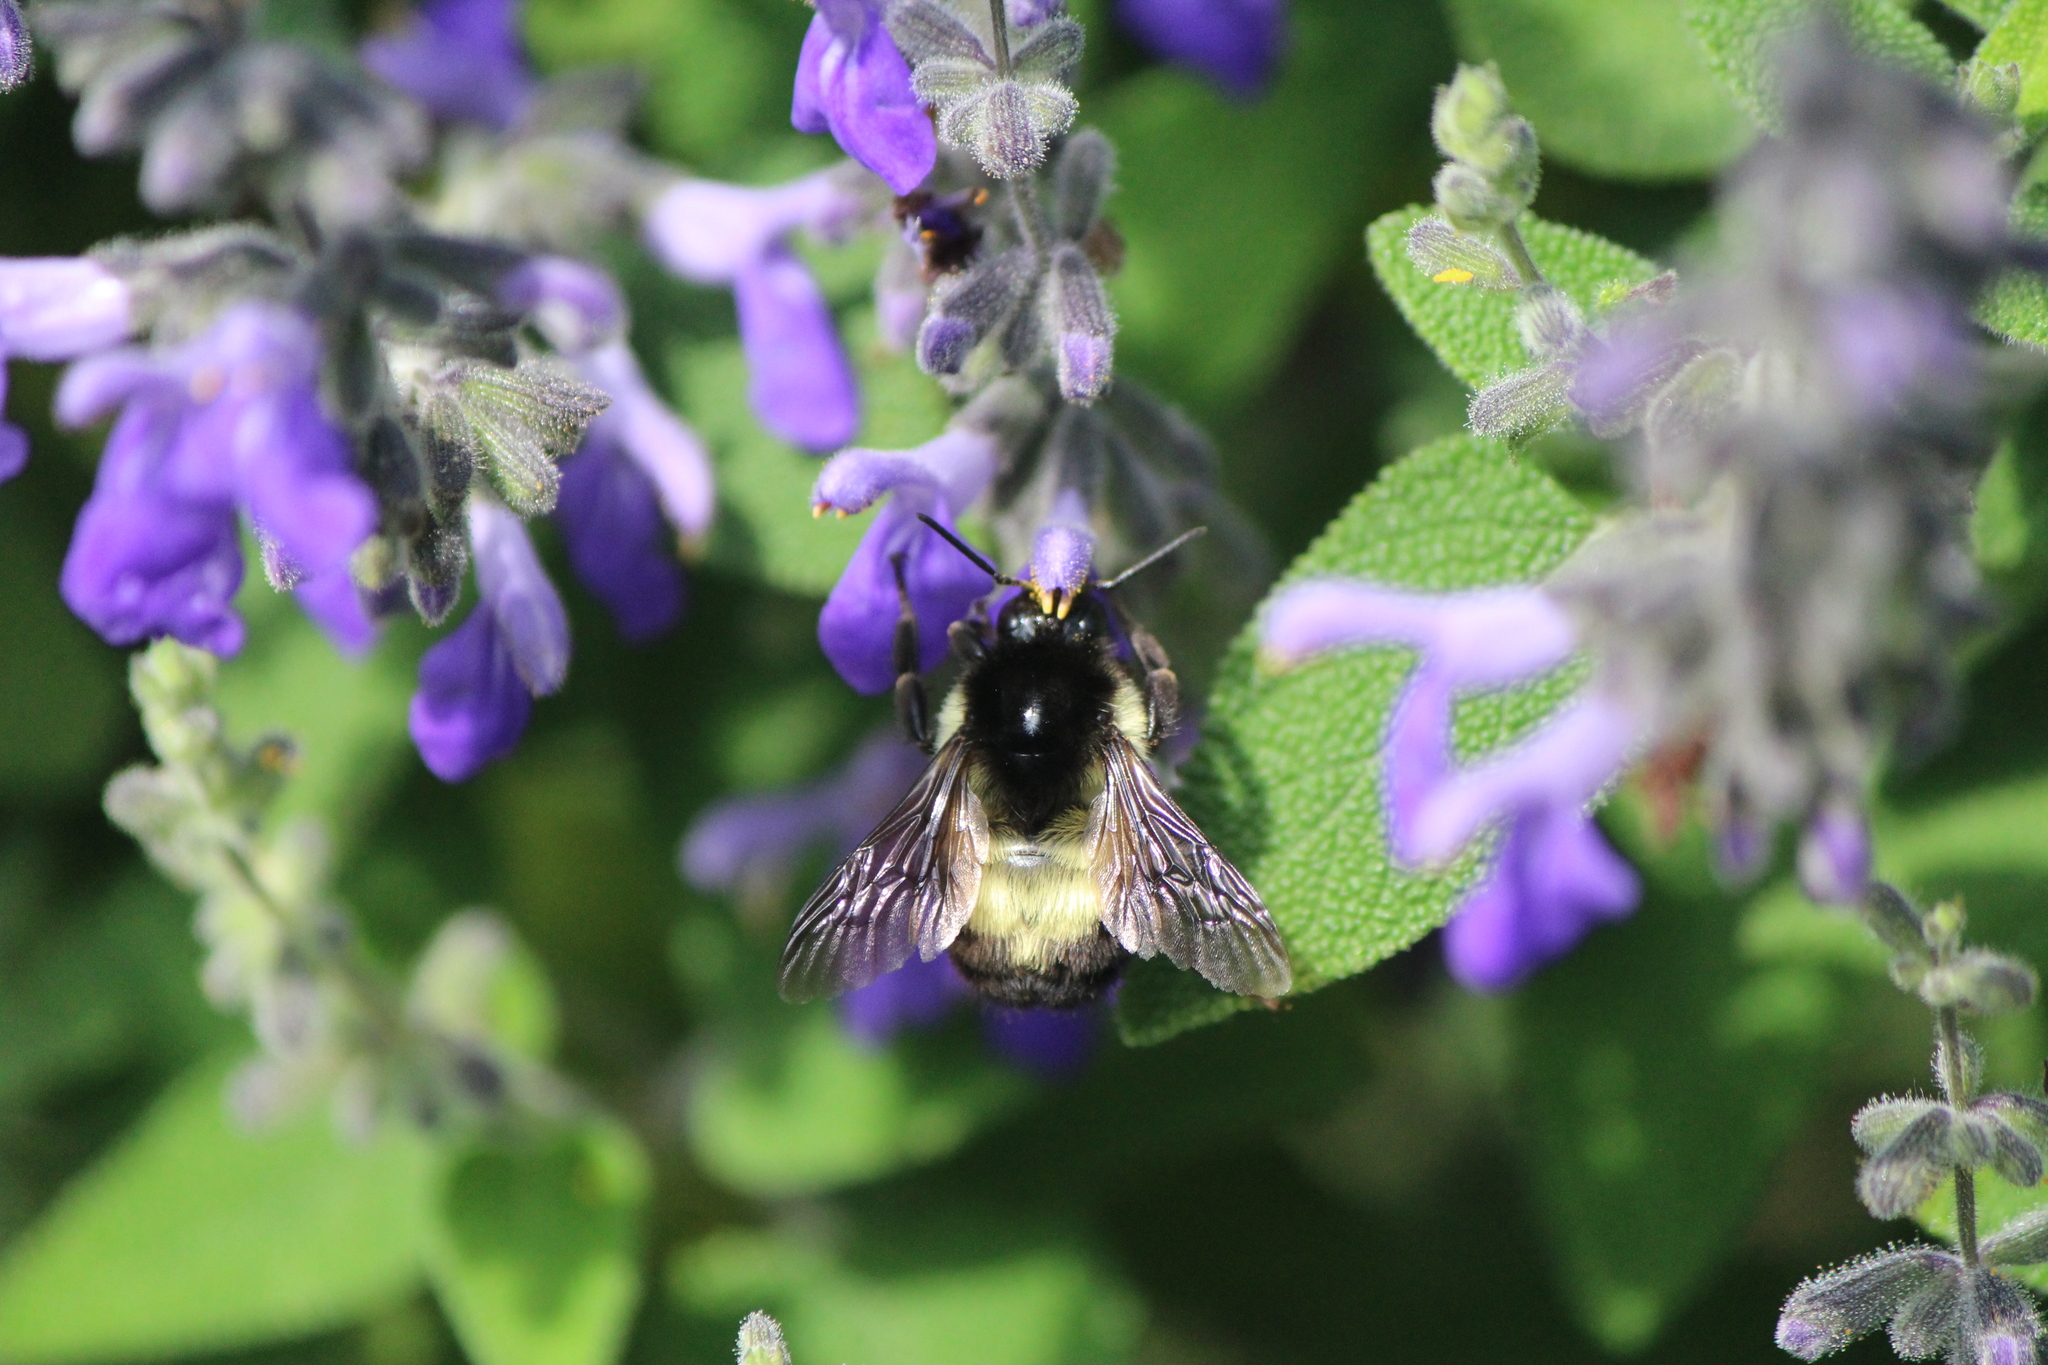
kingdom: Animalia
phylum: Arthropoda
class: Insecta
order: Hymenoptera
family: Apidae
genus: Bombus
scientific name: Bombus ephippiatus
